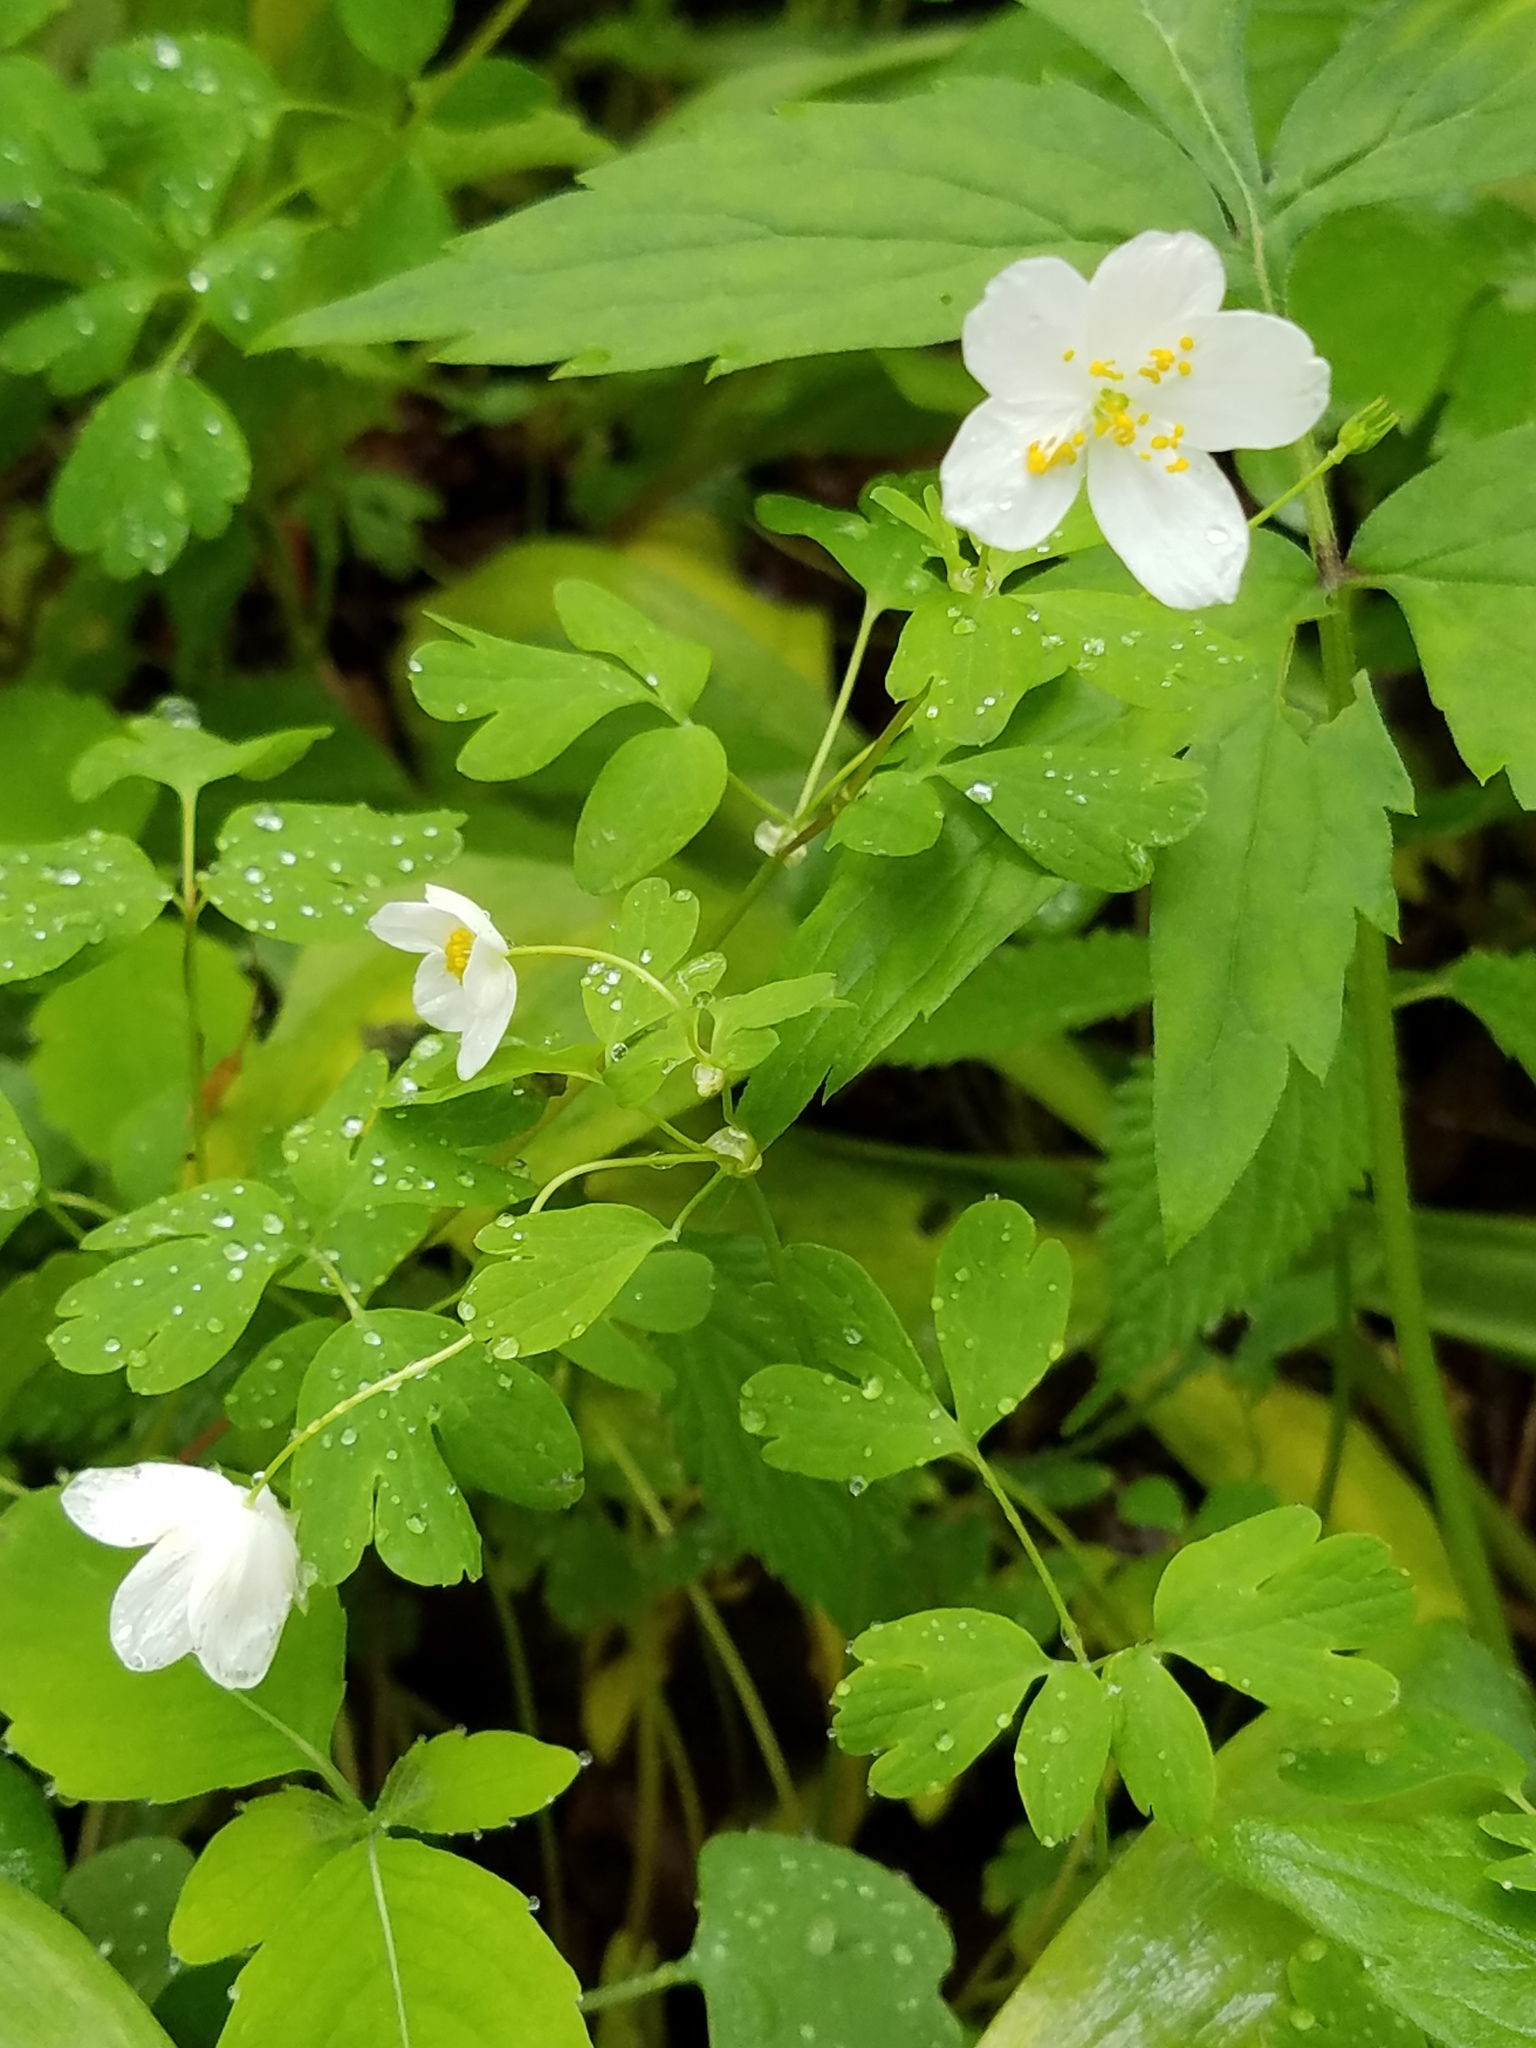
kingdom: Plantae
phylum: Tracheophyta
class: Magnoliopsida
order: Ranunculales
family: Ranunculaceae
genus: Enemion
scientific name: Enemion biternatum
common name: Eastern false rue-anemone
